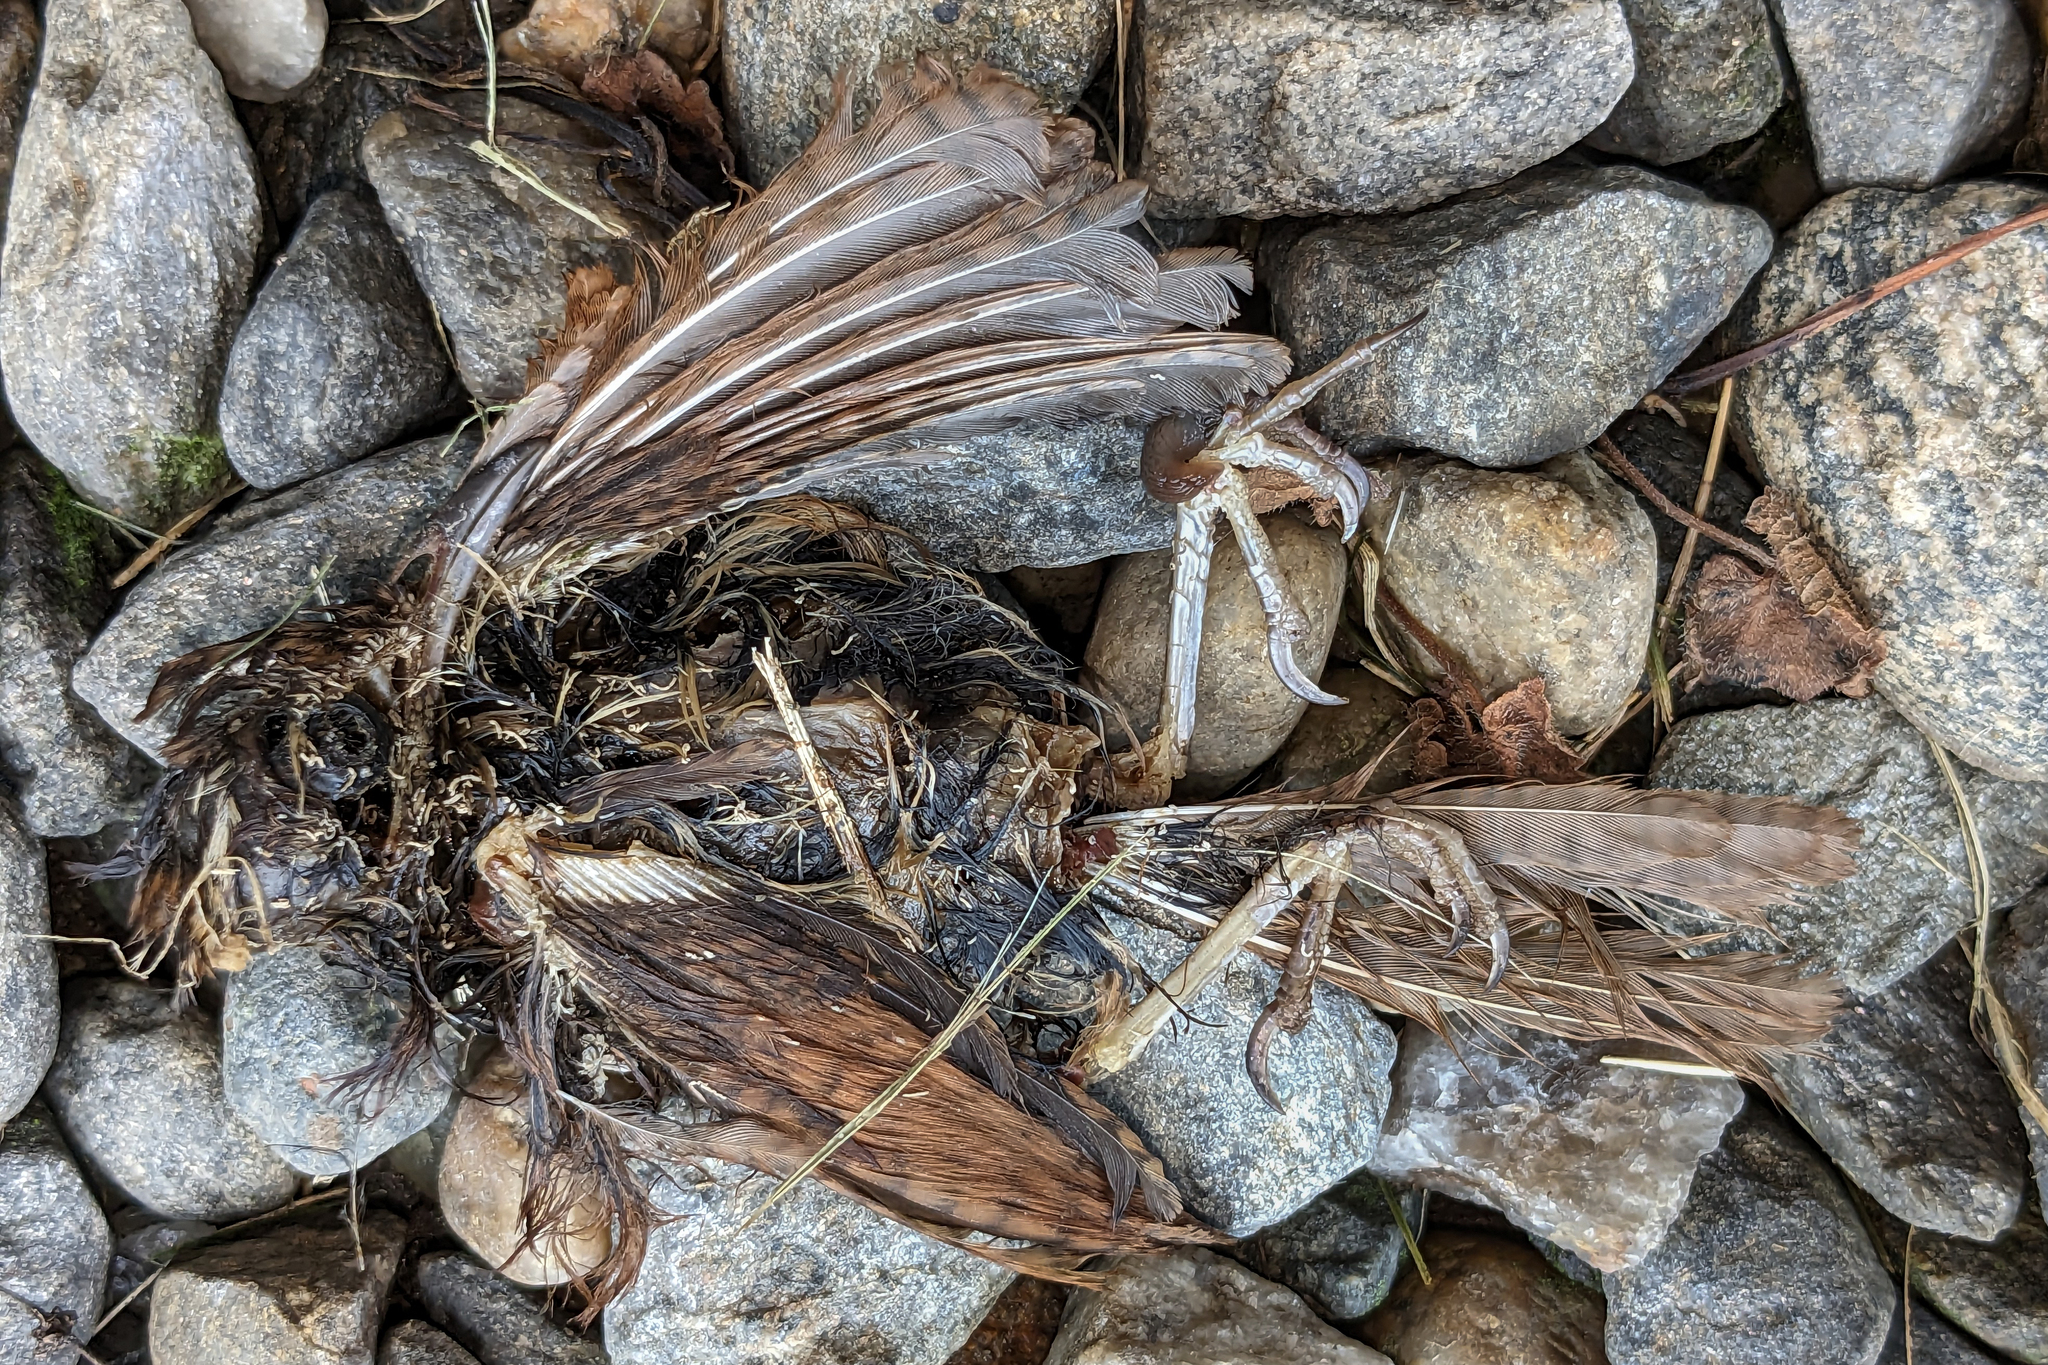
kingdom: Animalia
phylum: Chordata
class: Aves
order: Passeriformes
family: Troglodytidae
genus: Thryothorus
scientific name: Thryothorus ludovicianus
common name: Carolina wren
